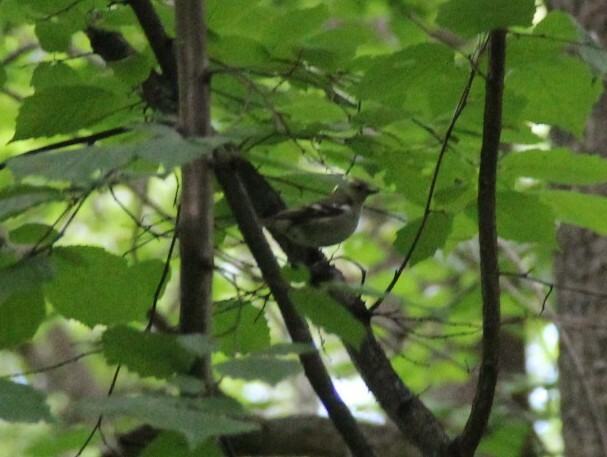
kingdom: Animalia
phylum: Chordata
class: Aves
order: Passeriformes
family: Fringillidae
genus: Fringilla
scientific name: Fringilla coelebs
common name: Common chaffinch
